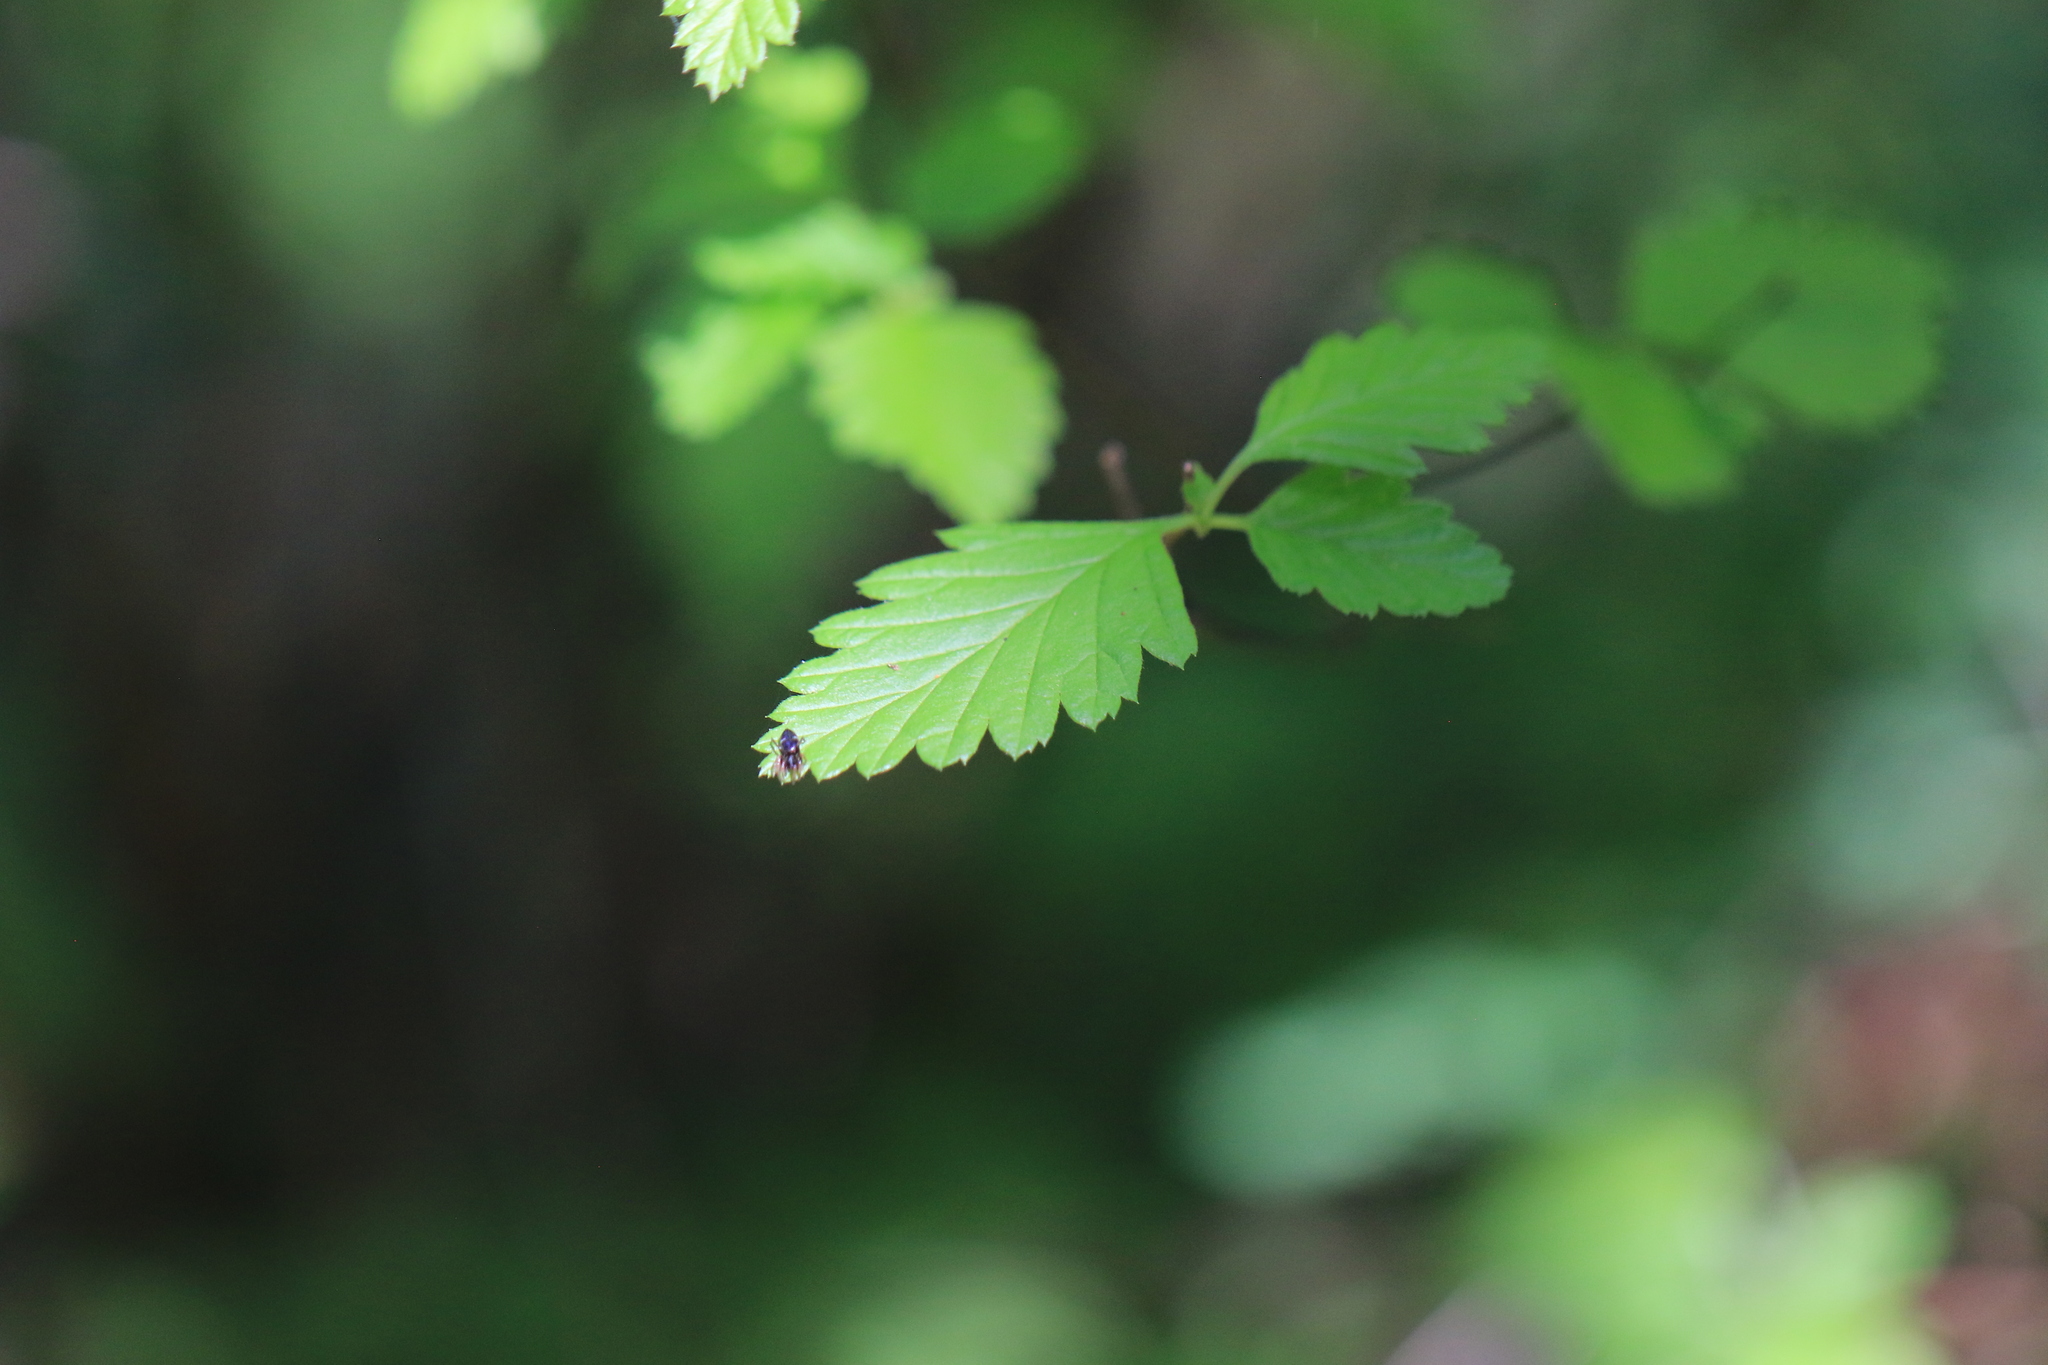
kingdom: Plantae
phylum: Tracheophyta
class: Magnoliopsida
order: Rosales
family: Rosaceae
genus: Holodiscus
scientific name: Holodiscus discolor
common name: Oceanspray
